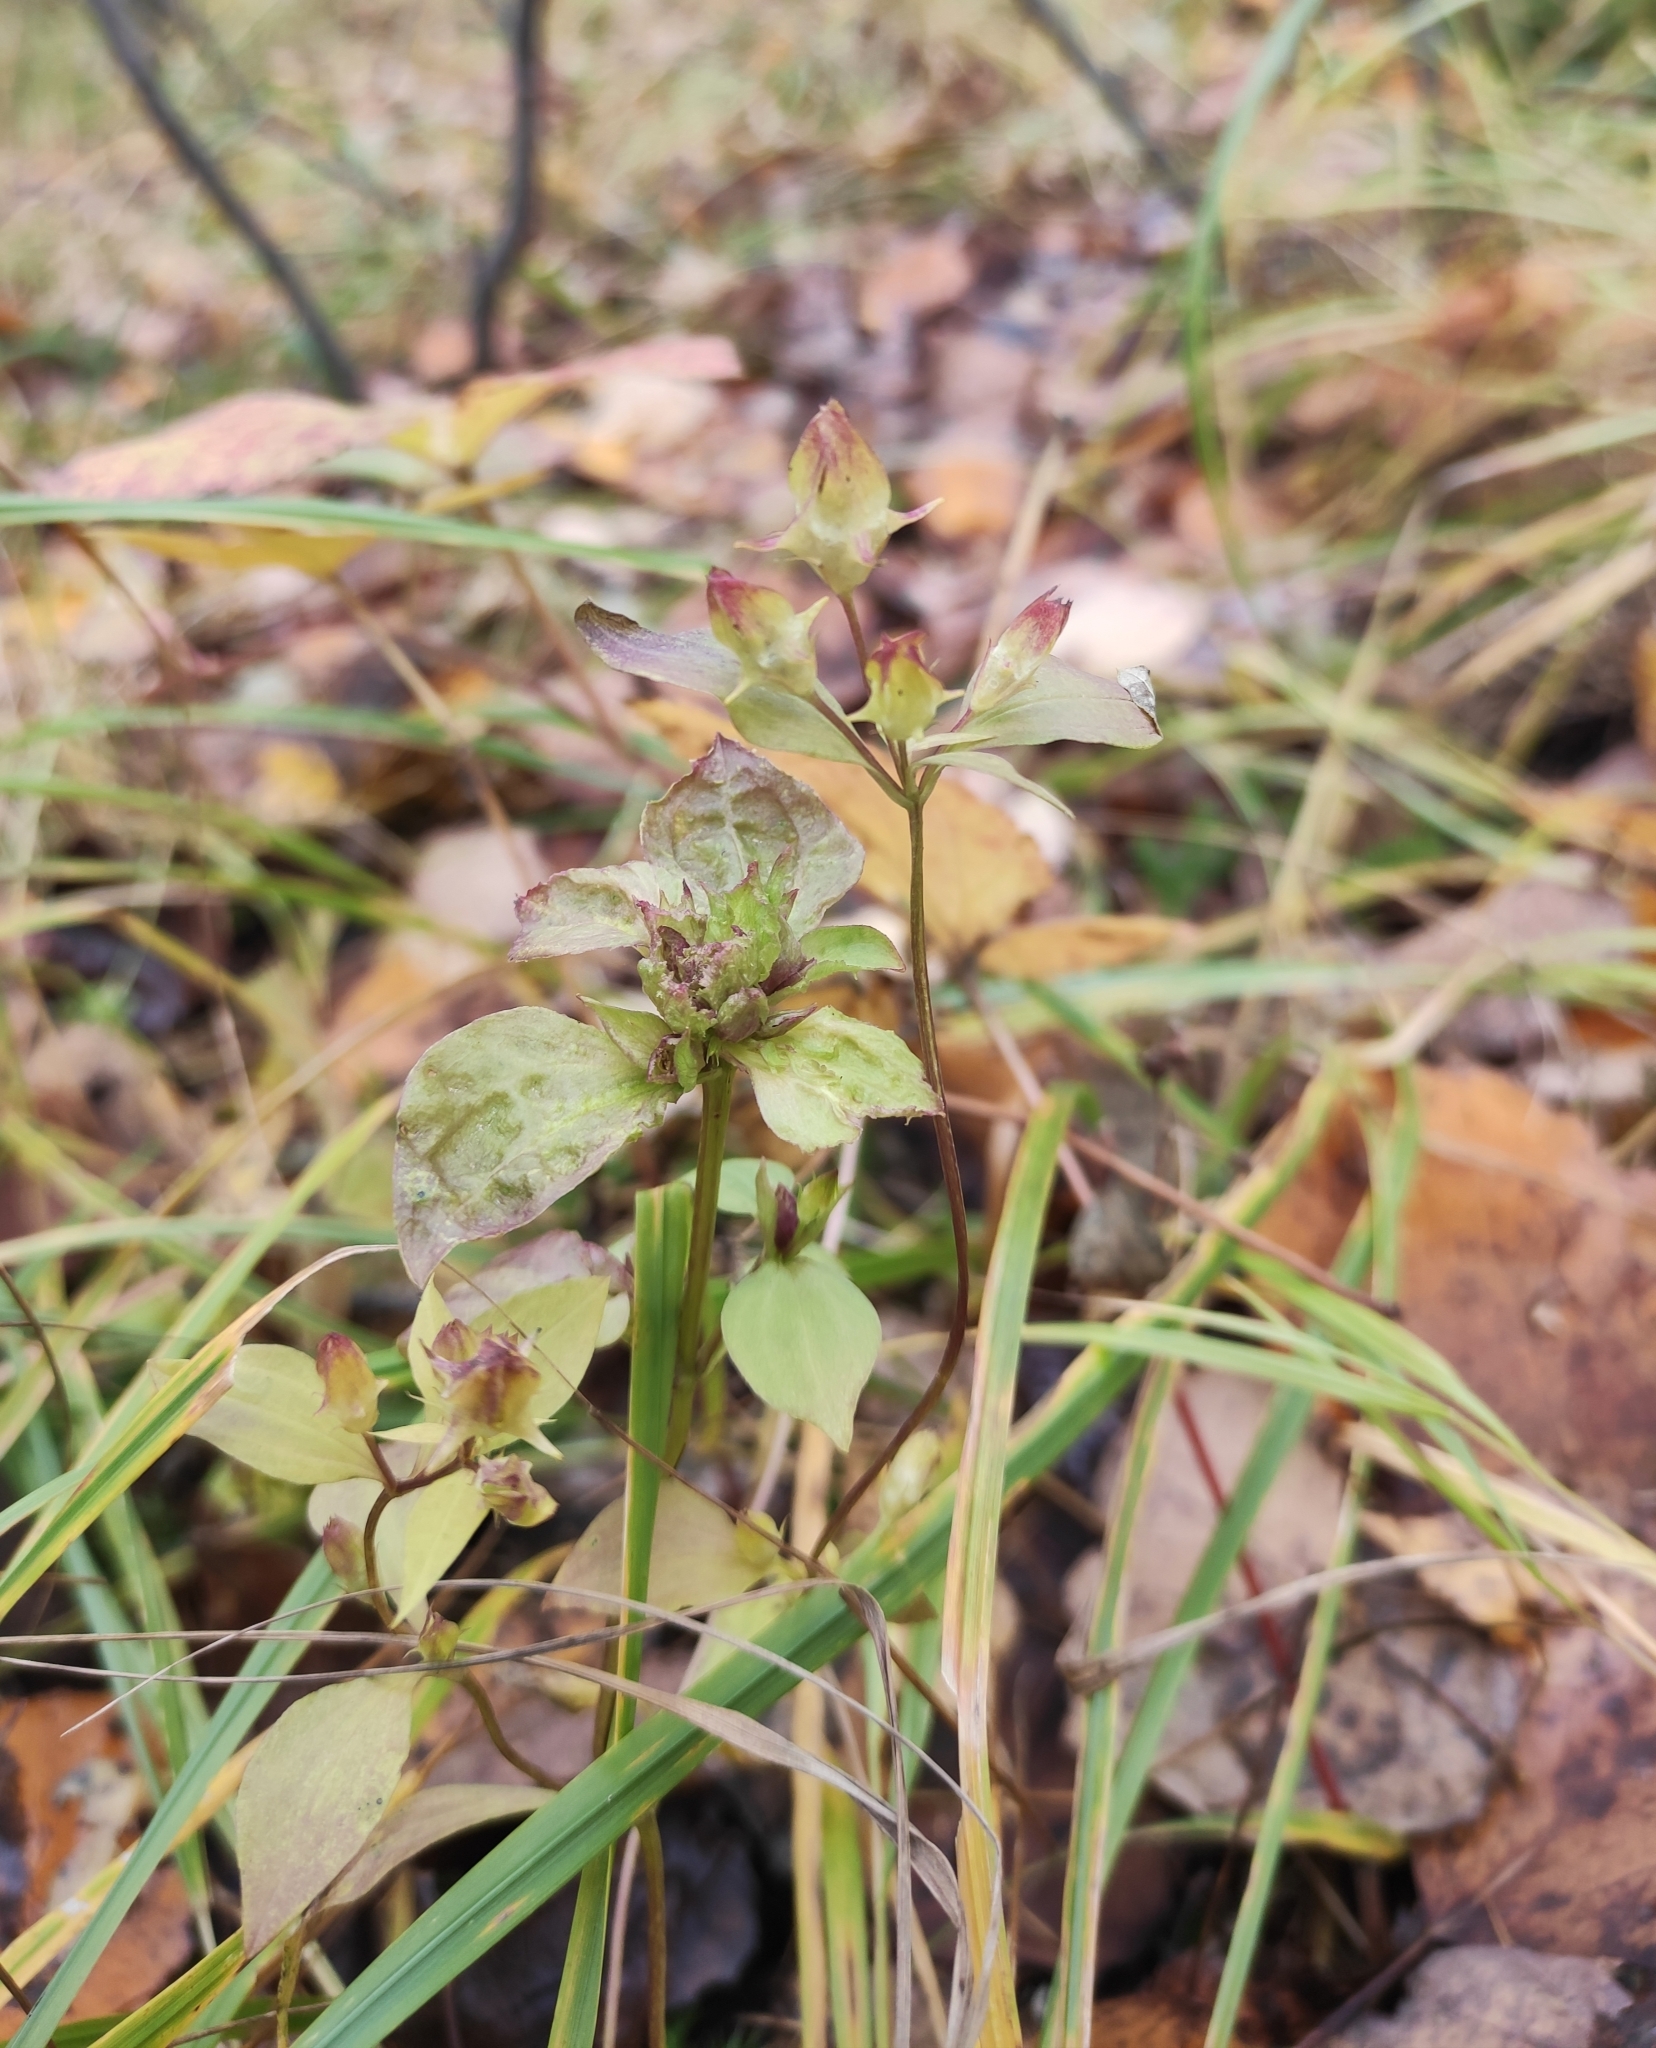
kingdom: Plantae
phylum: Tracheophyta
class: Magnoliopsida
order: Gentianales
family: Gentianaceae
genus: Halenia
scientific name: Halenia corniculata
